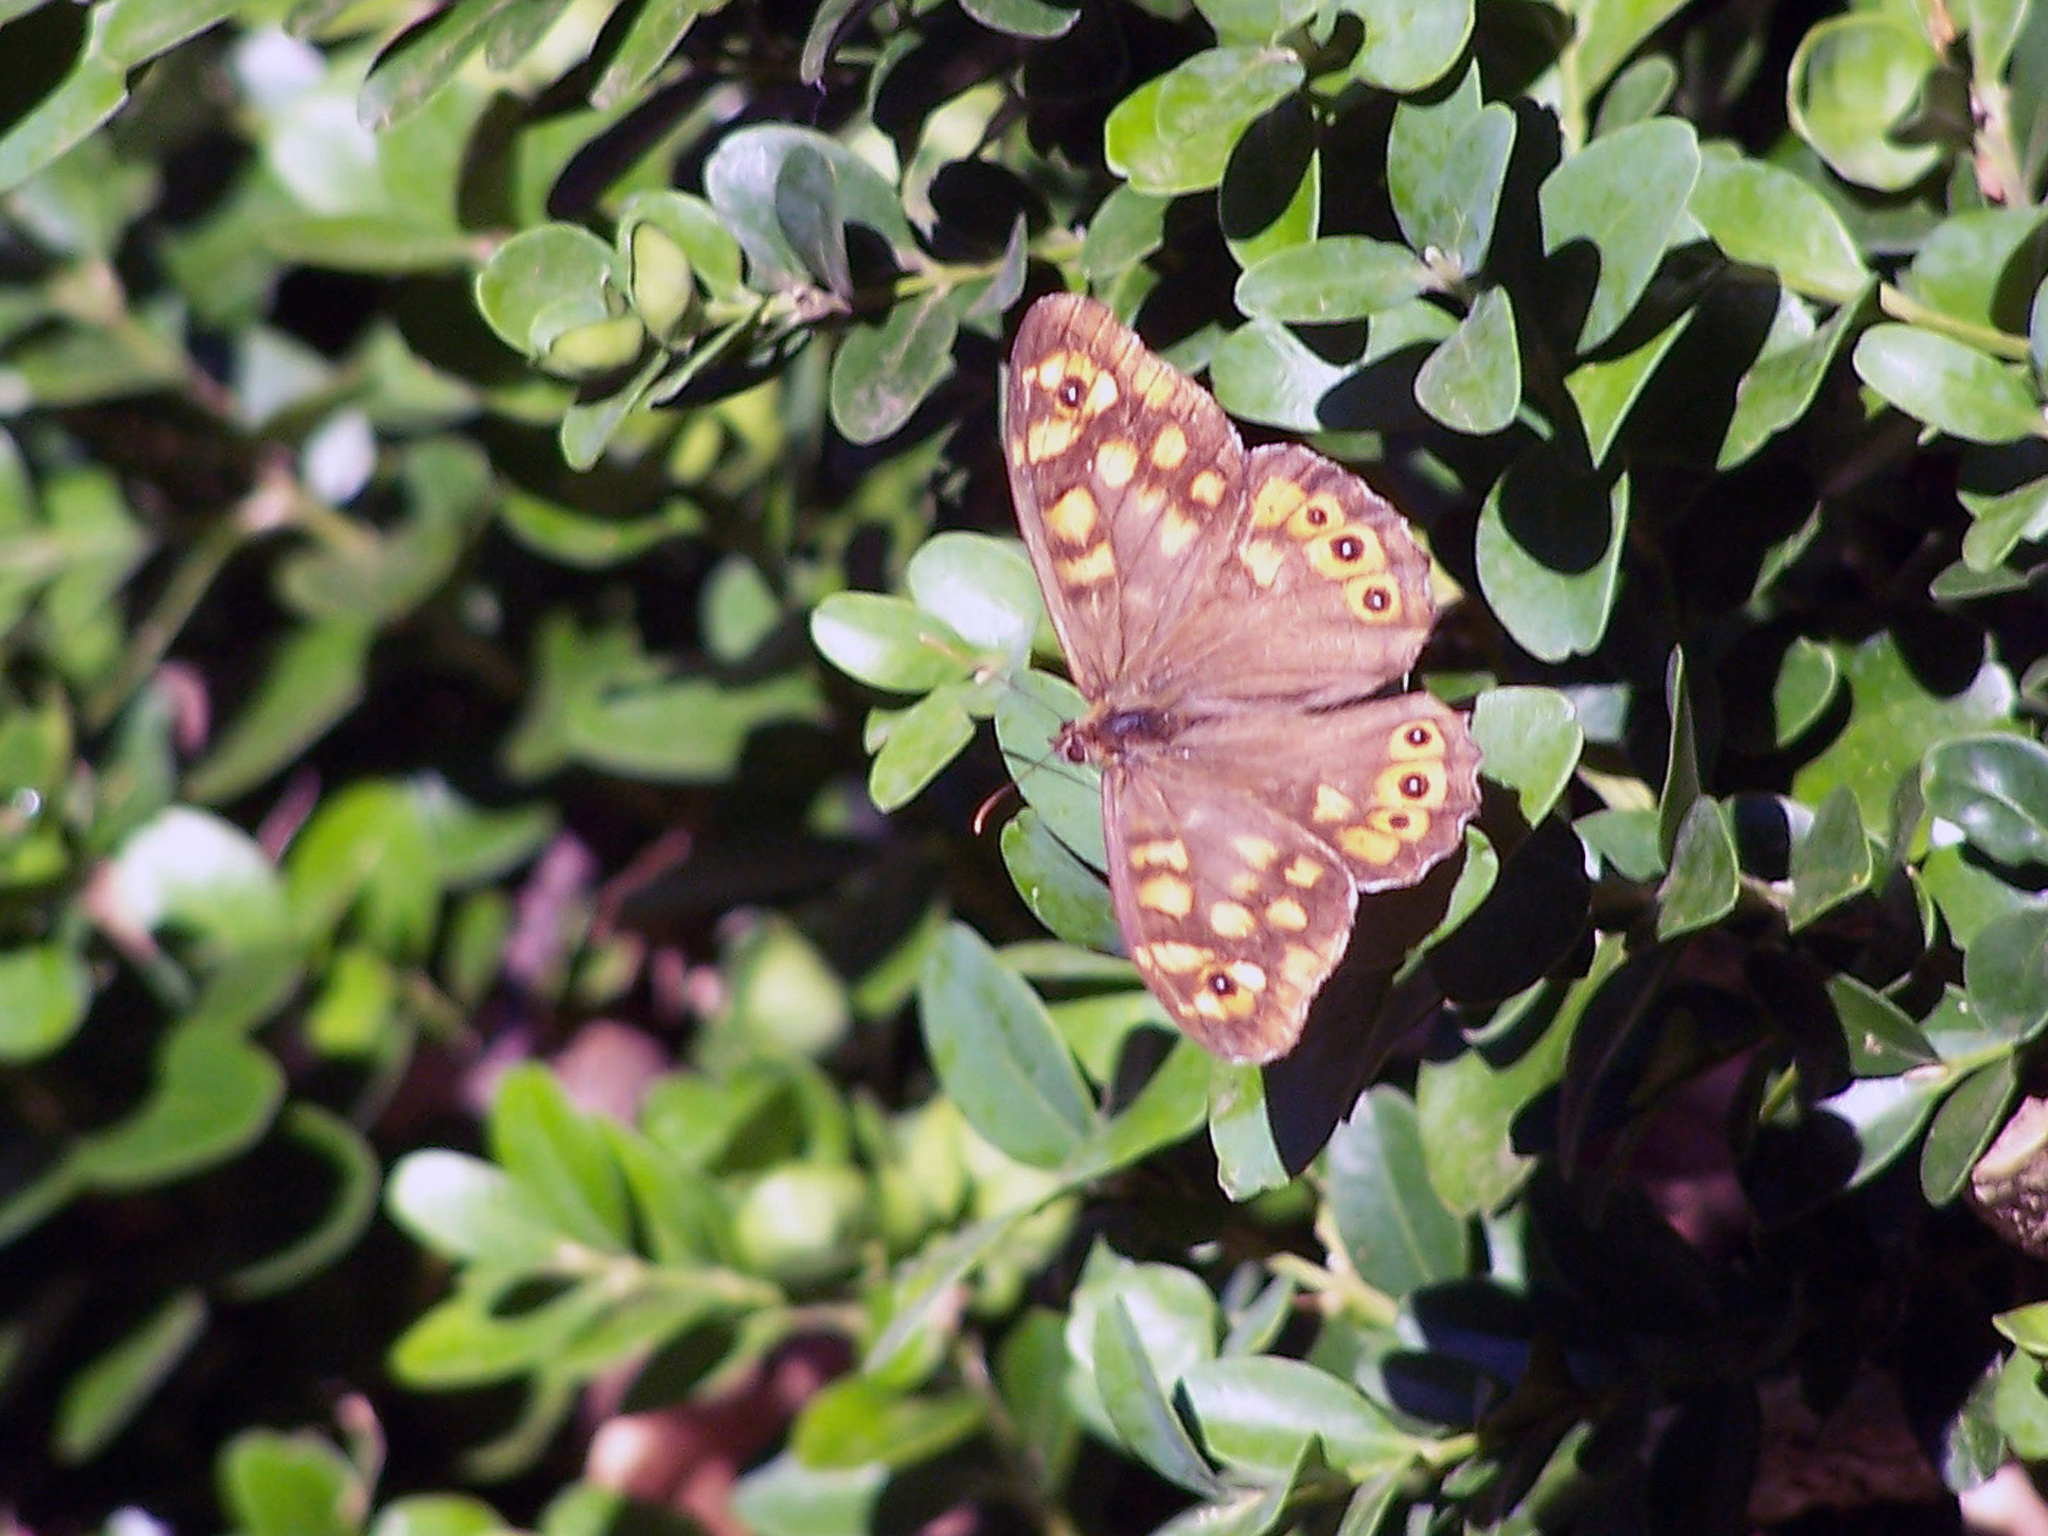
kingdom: Animalia
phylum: Arthropoda
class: Insecta
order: Lepidoptera
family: Nymphalidae
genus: Pararge
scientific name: Pararge aegeria
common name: Speckled wood
